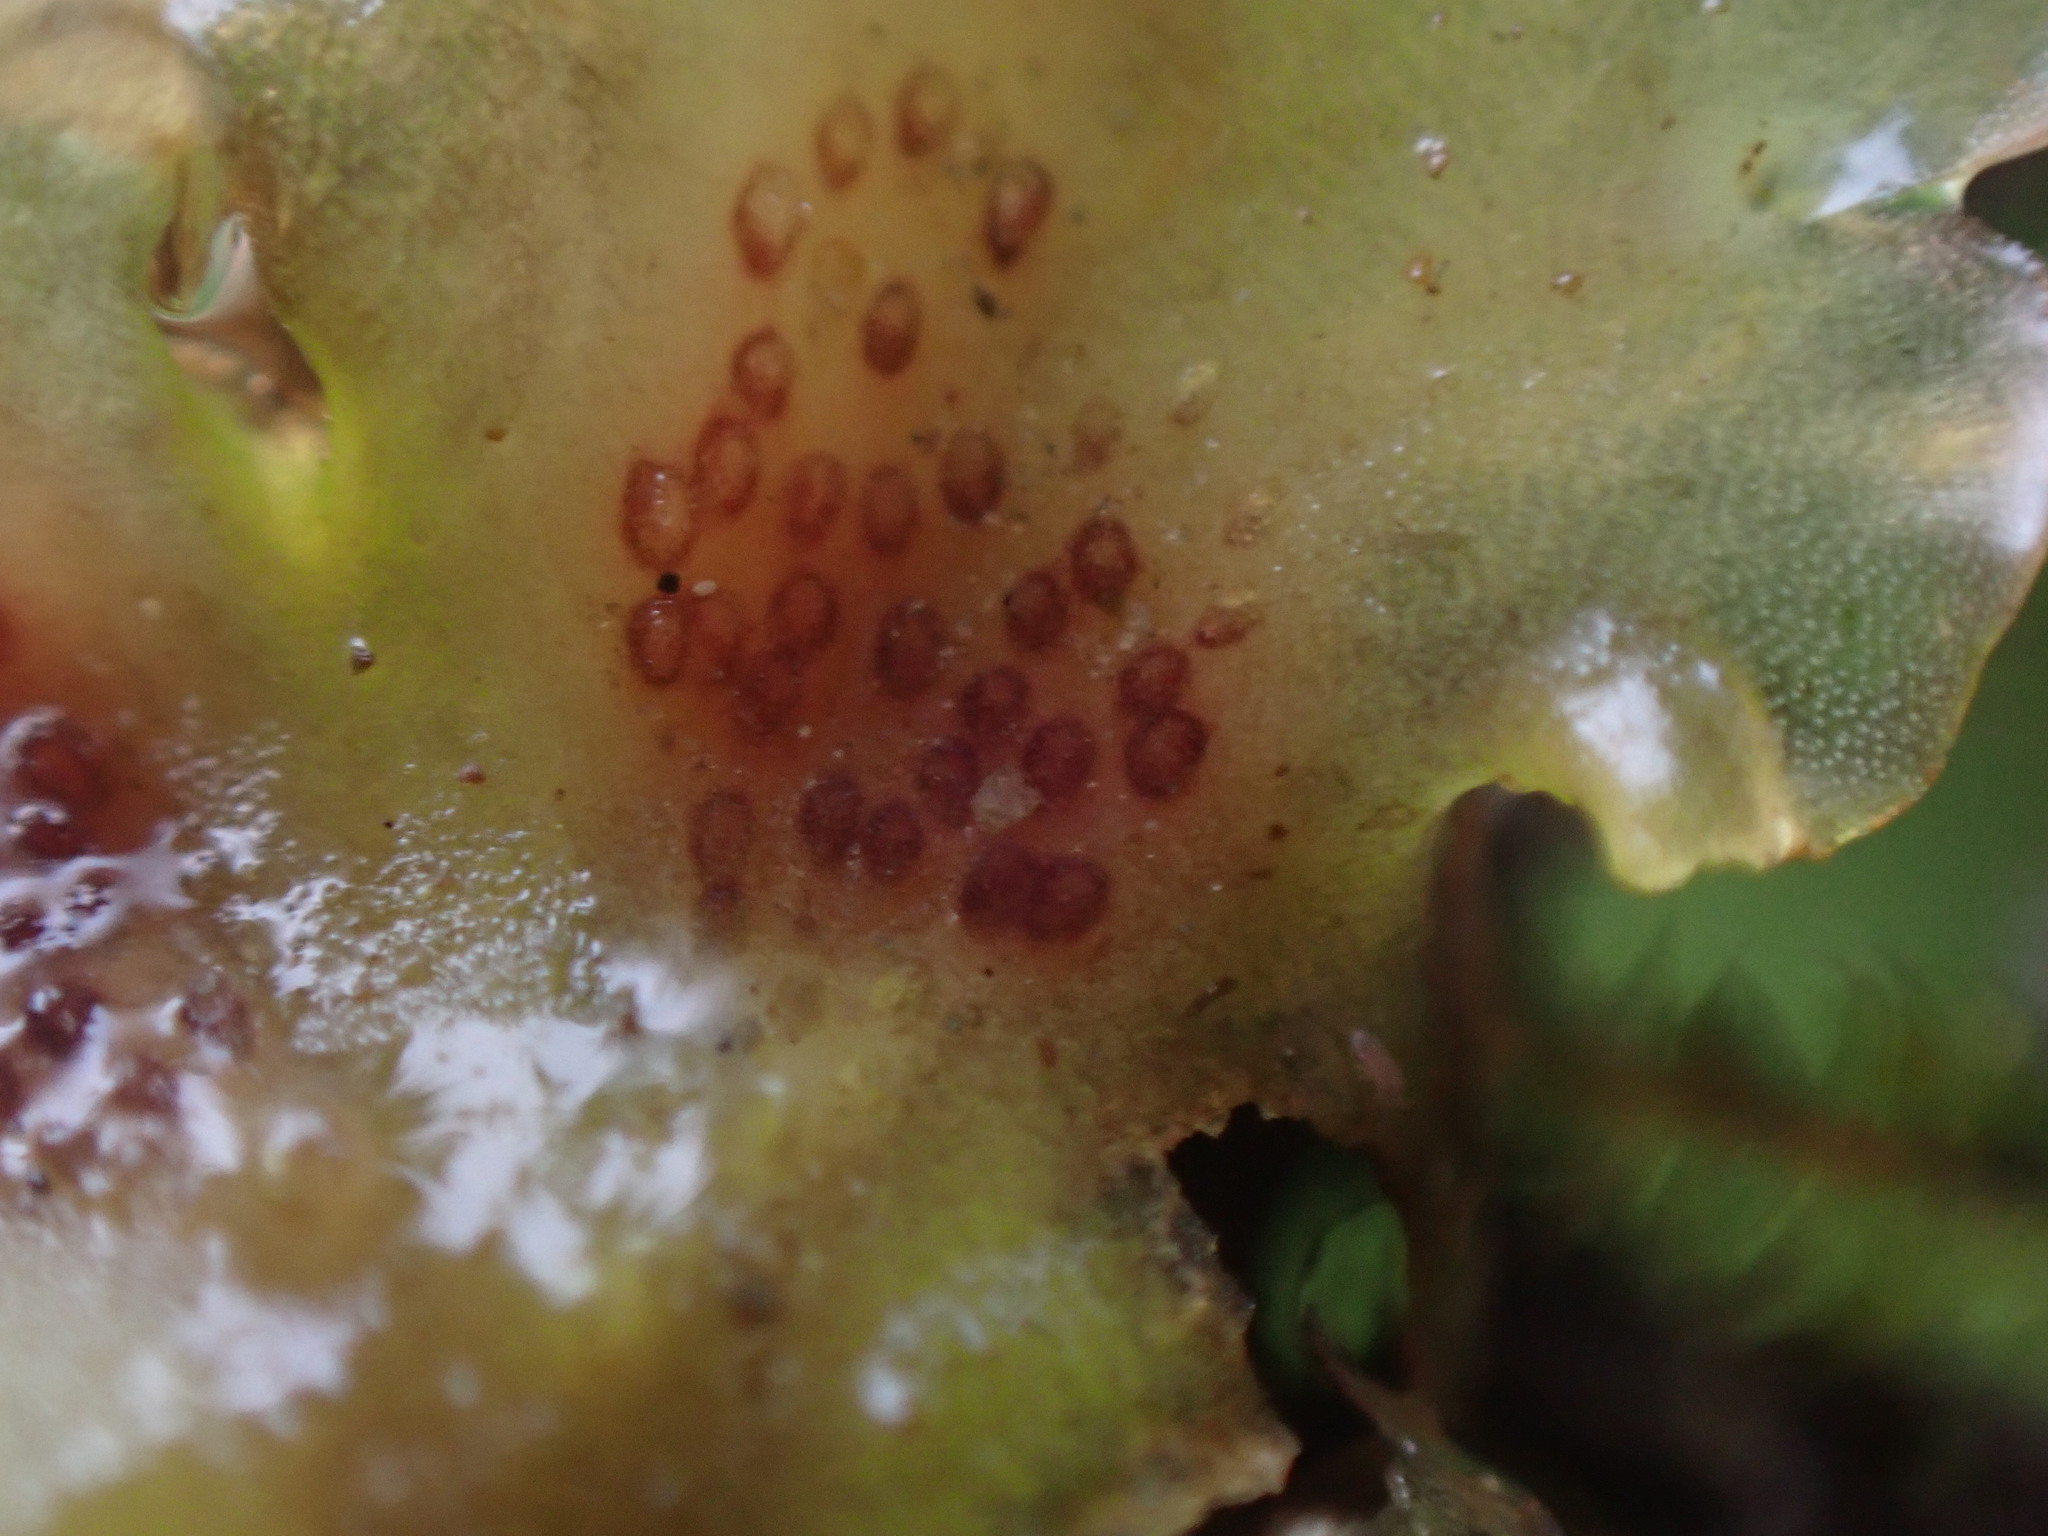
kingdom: Plantae
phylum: Marchantiophyta
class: Jungermanniopsida
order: Pelliales
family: Pelliaceae
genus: Pellia
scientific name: Pellia neesiana
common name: Nees  pellia
